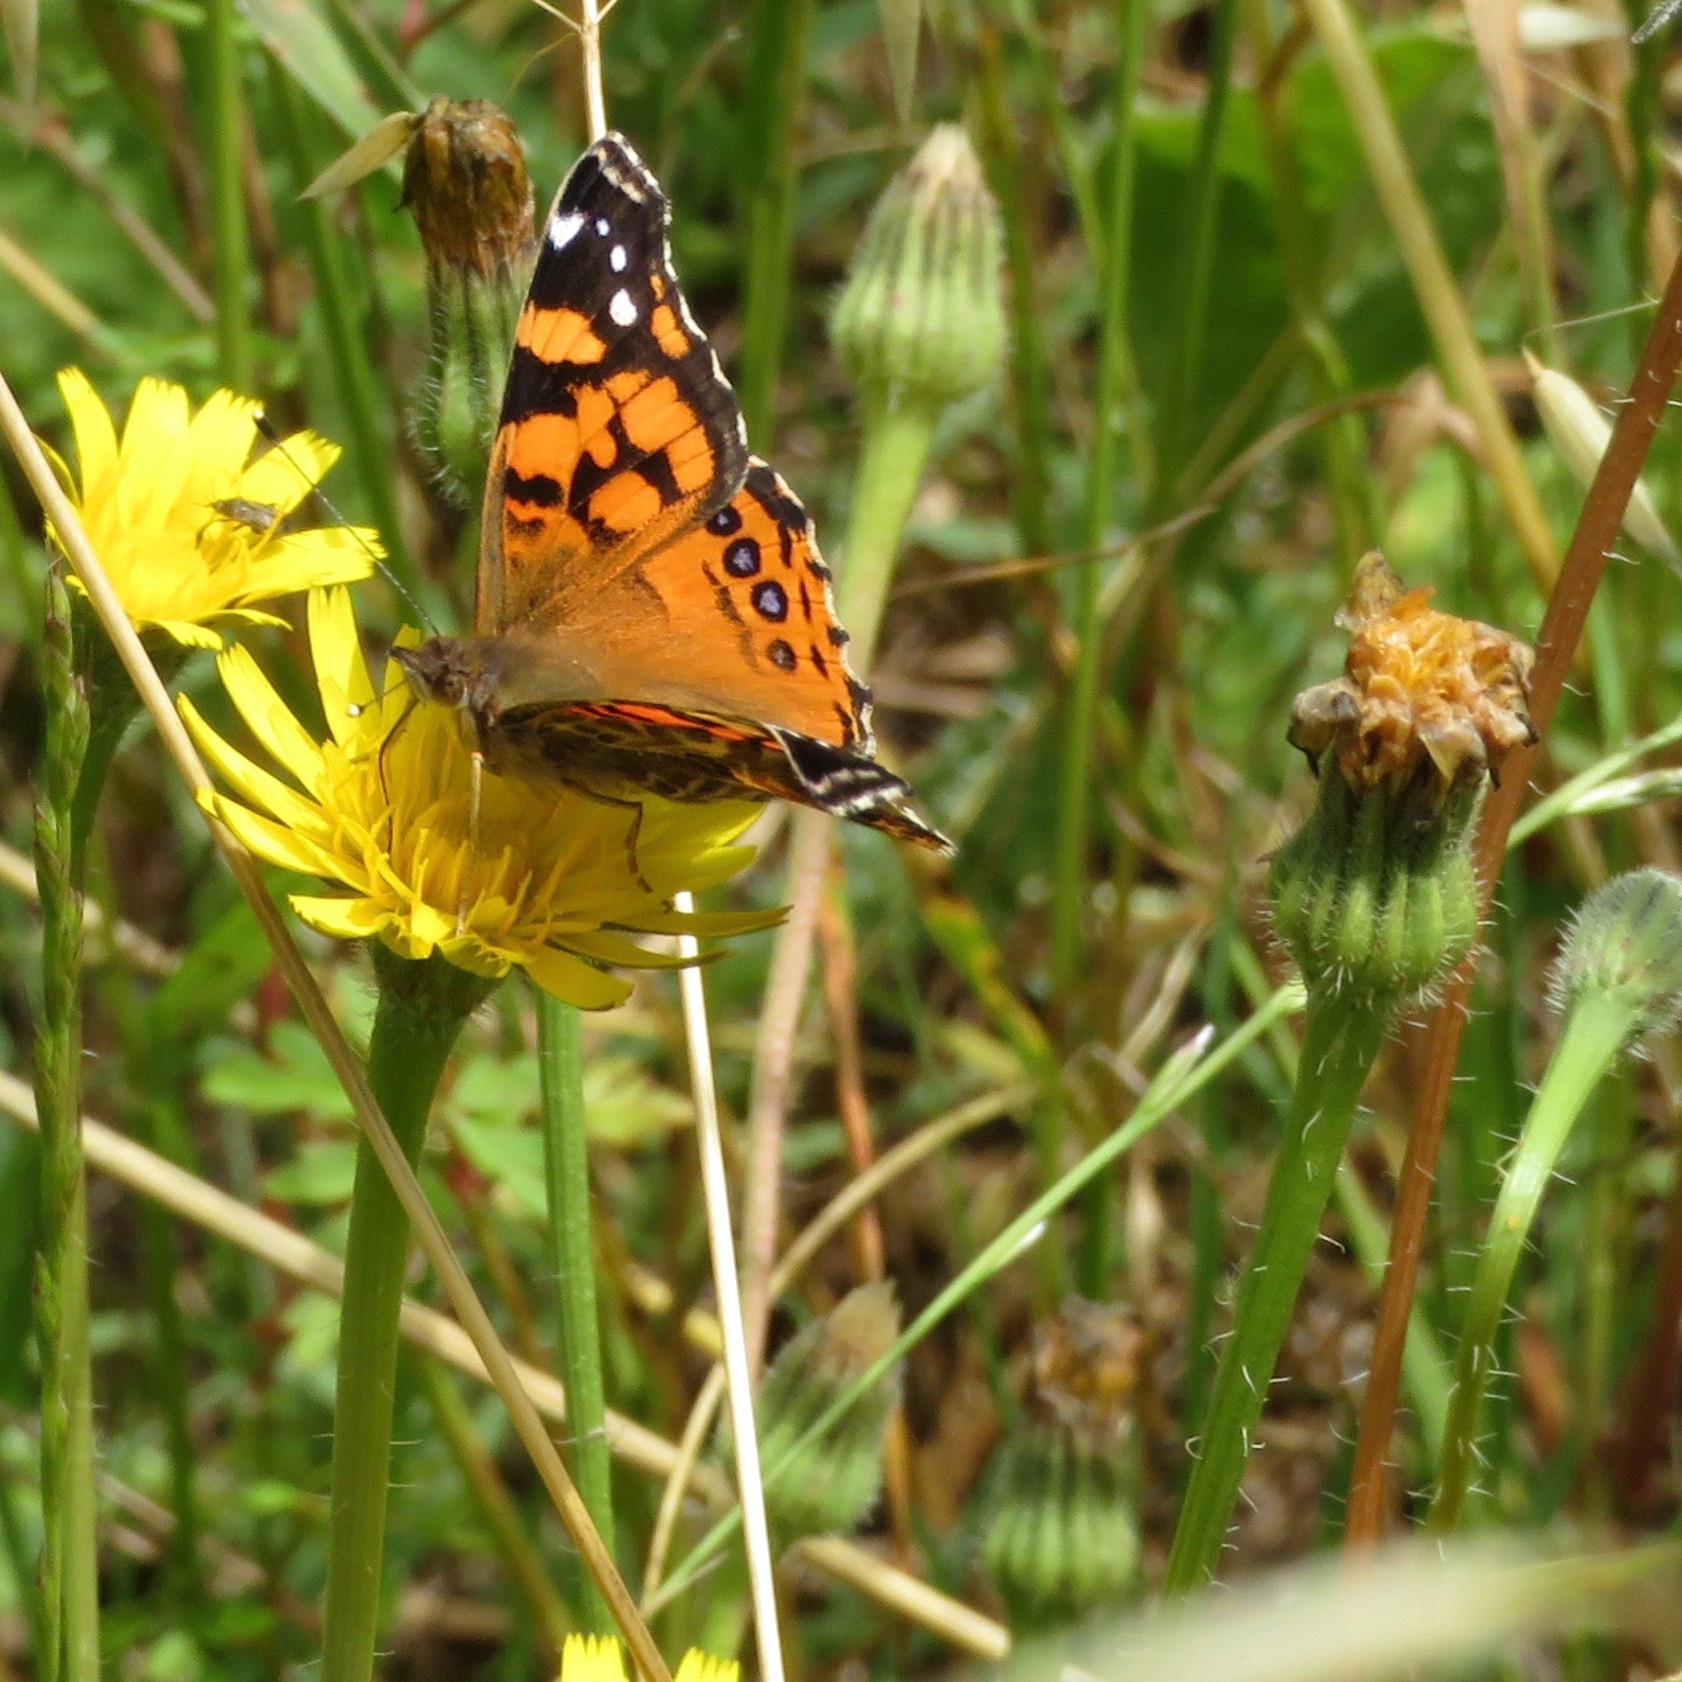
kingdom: Animalia
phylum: Arthropoda
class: Insecta
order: Lepidoptera
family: Nymphalidae
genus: Vanessa
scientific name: Vanessa annabella
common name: West coast lady
